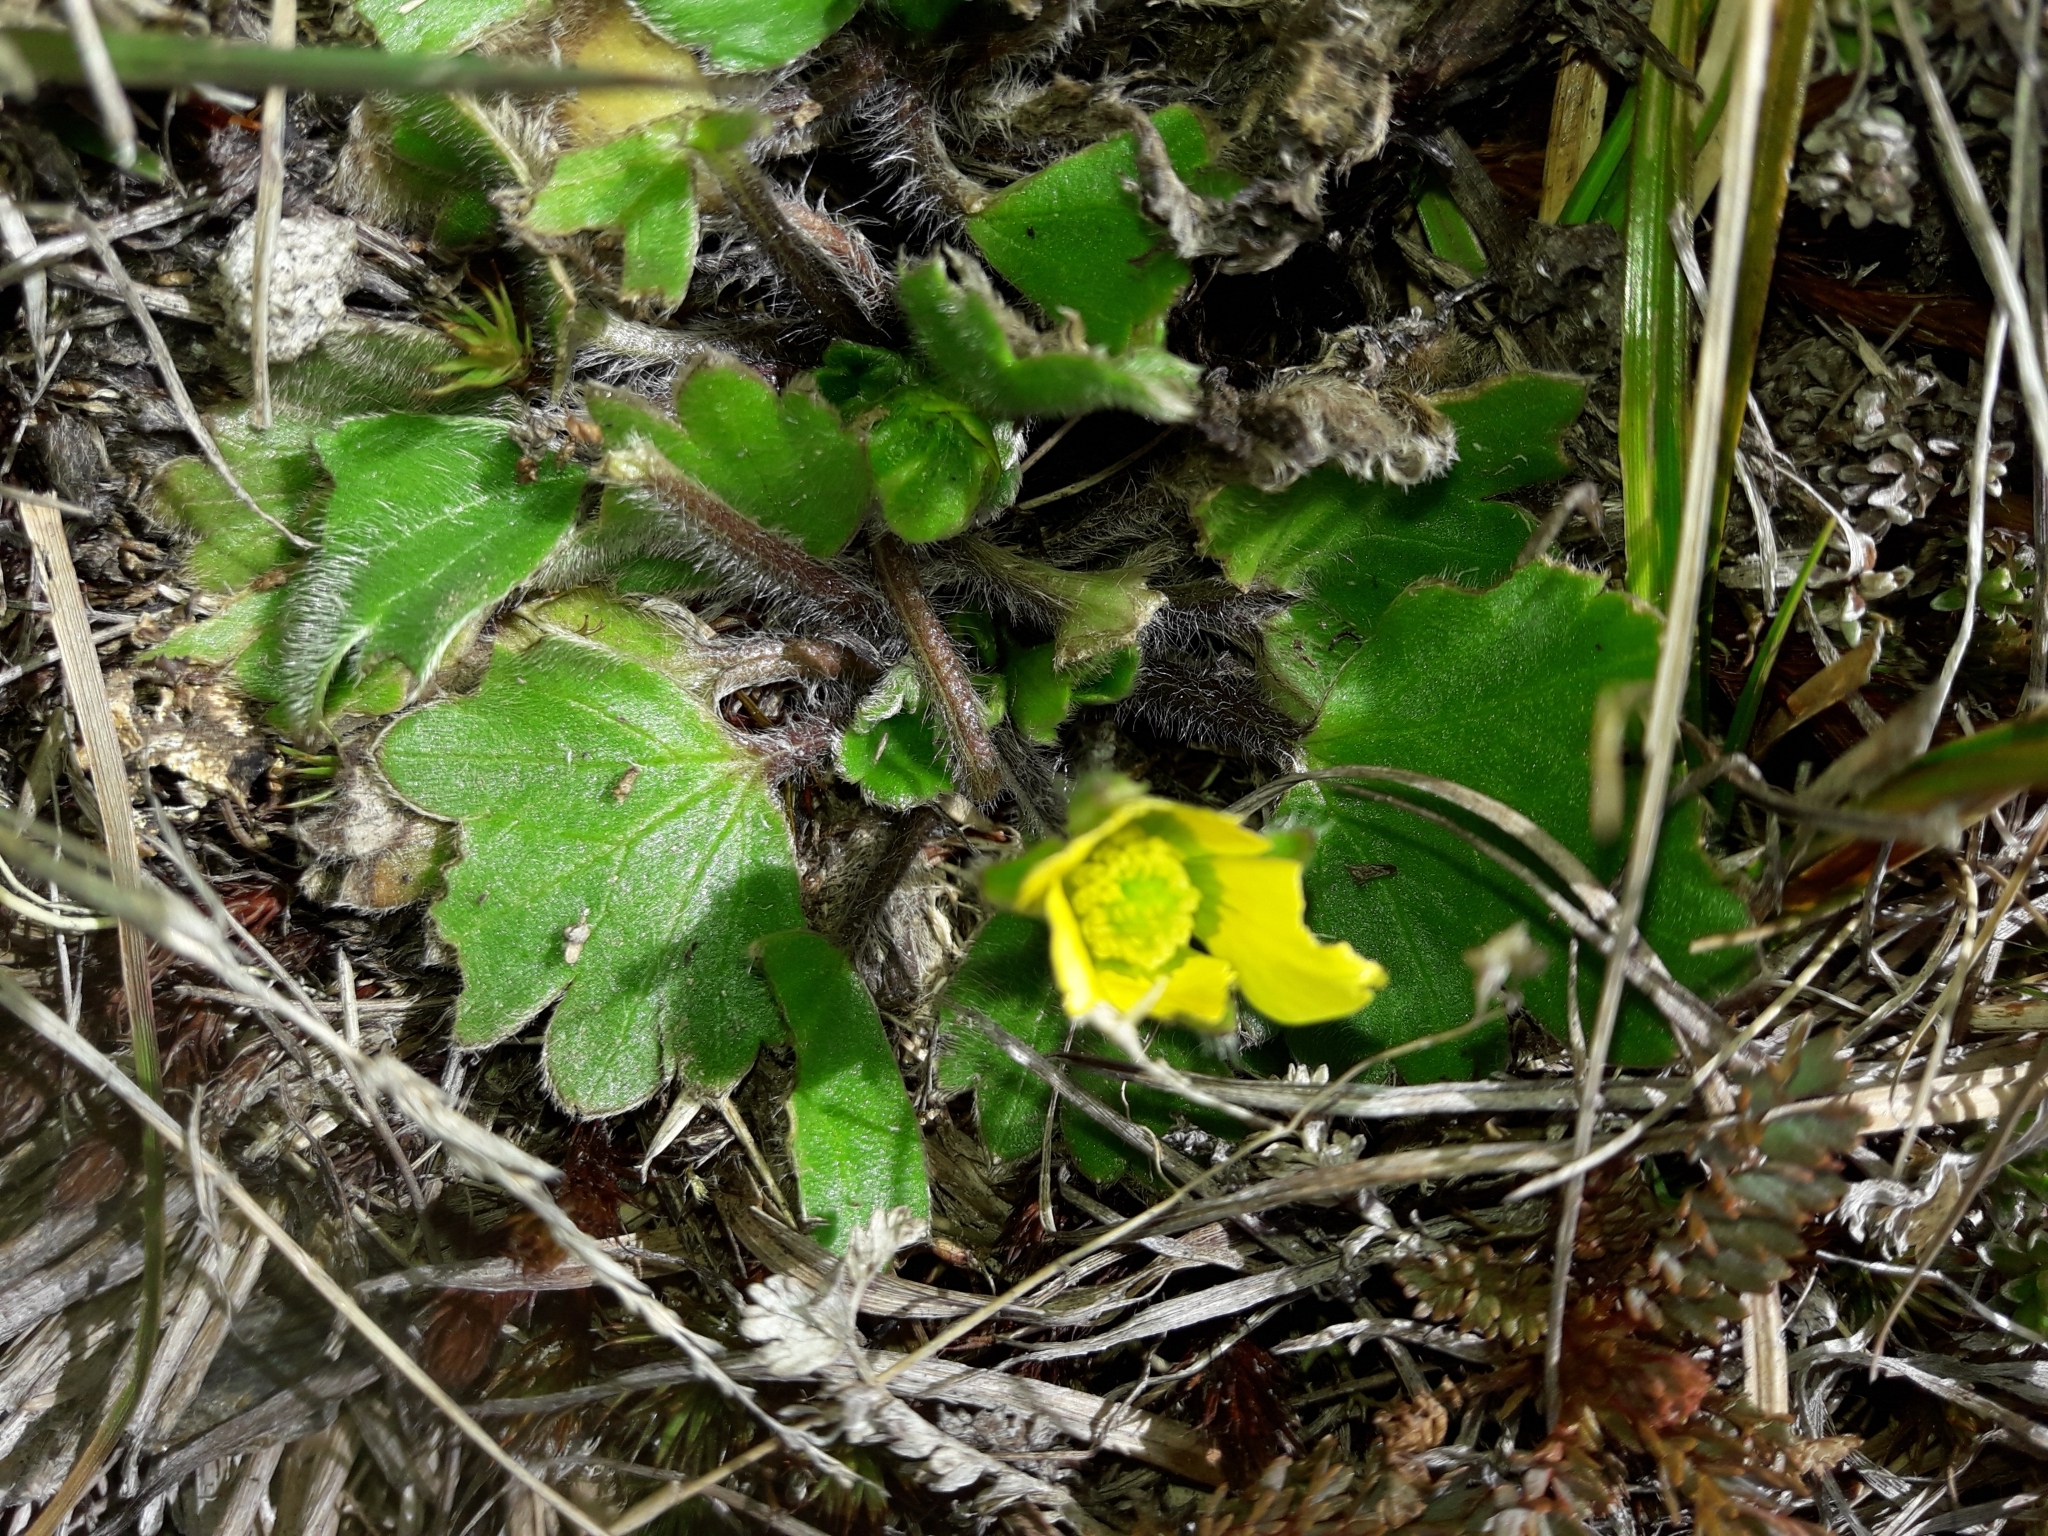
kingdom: Plantae
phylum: Tracheophyta
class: Magnoliopsida
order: Ranunculales
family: Ranunculaceae
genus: Ranunculus
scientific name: Ranunculus royi
